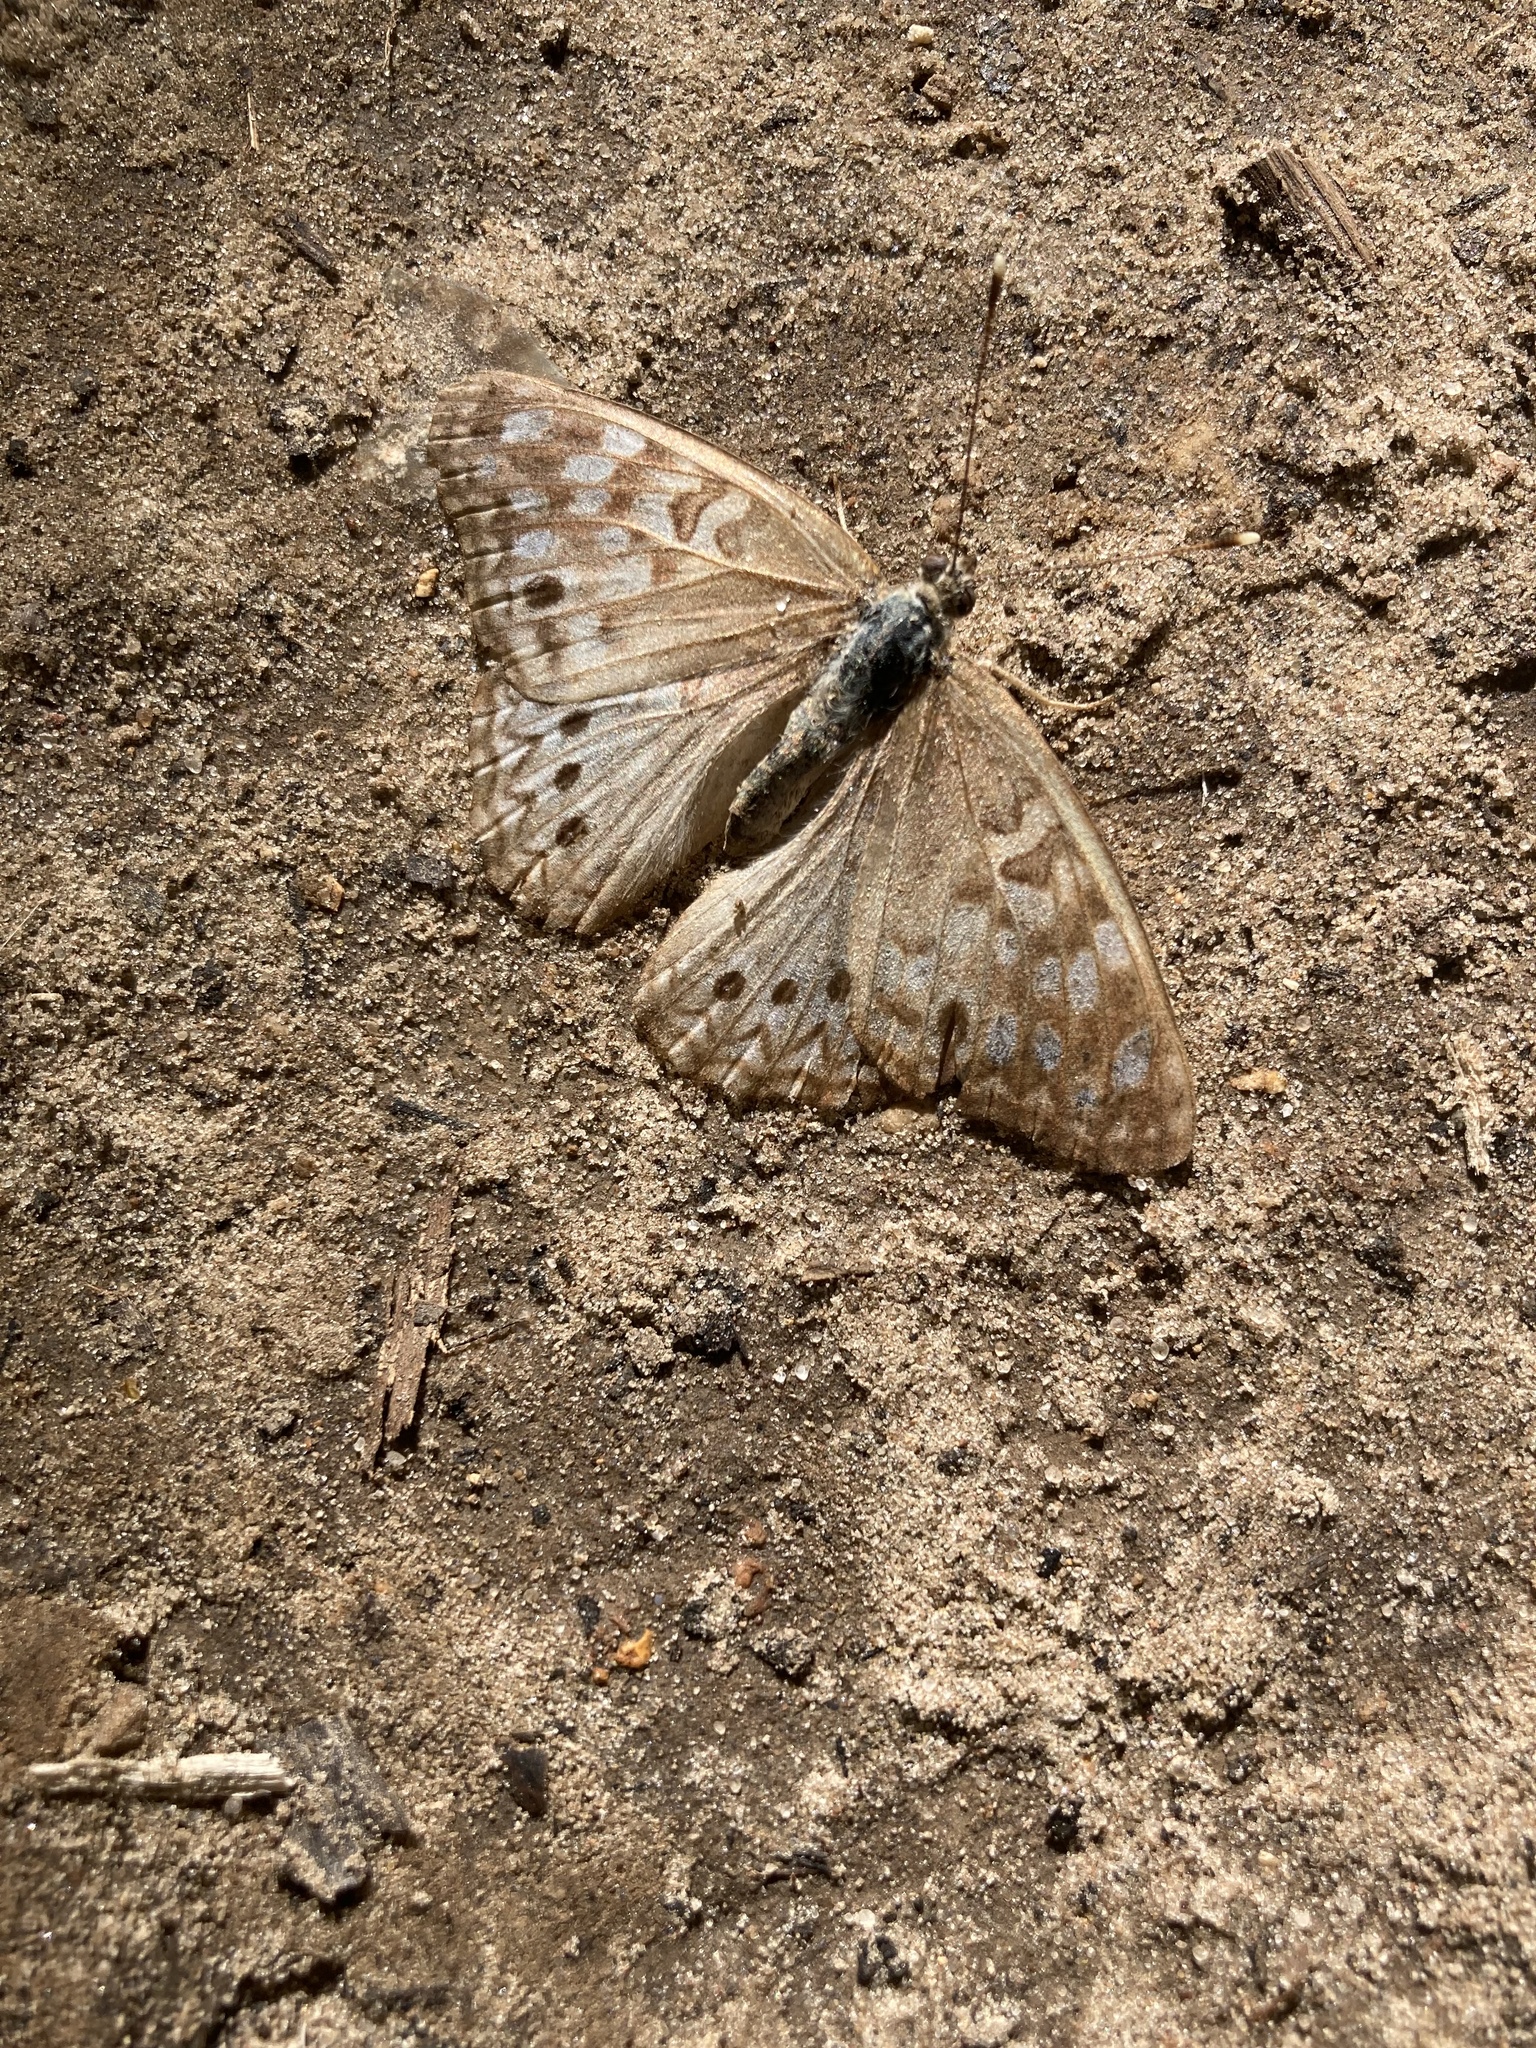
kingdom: Animalia
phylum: Arthropoda
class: Insecta
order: Lepidoptera
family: Nymphalidae
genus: Asterocampa
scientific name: Asterocampa celtis
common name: Hackberry emperor
